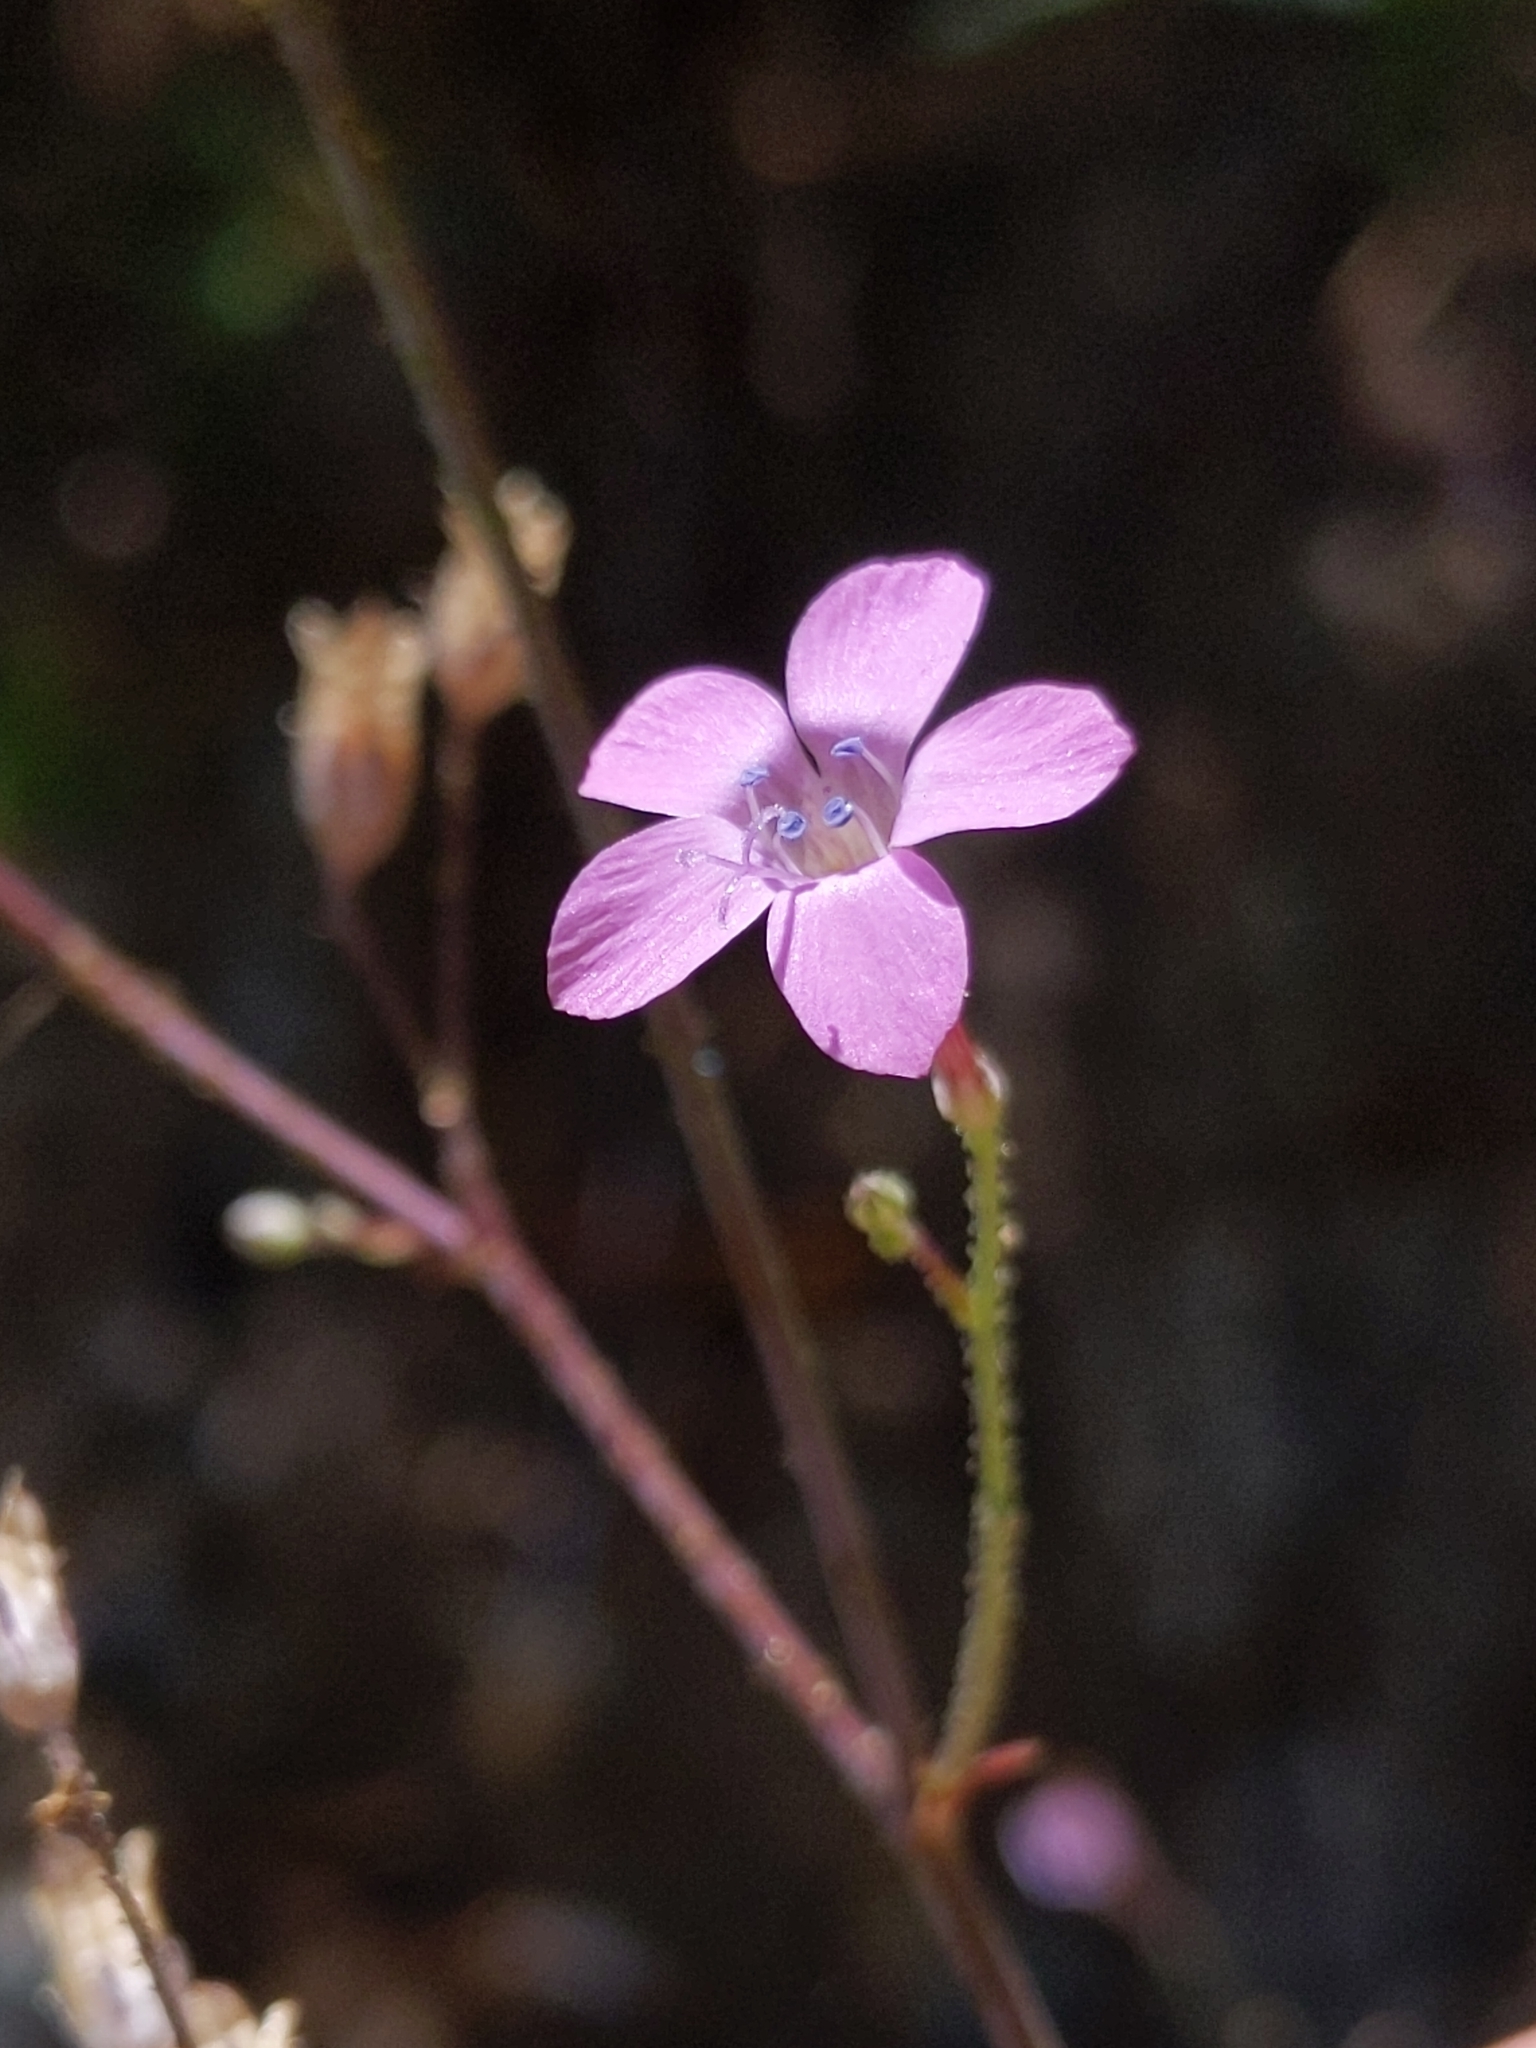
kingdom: Plantae
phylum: Tracheophyta
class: Magnoliopsida
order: Ericales
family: Polemoniaceae
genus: Saltugilia
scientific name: Saltugilia splendens
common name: Grinnell's gilia
